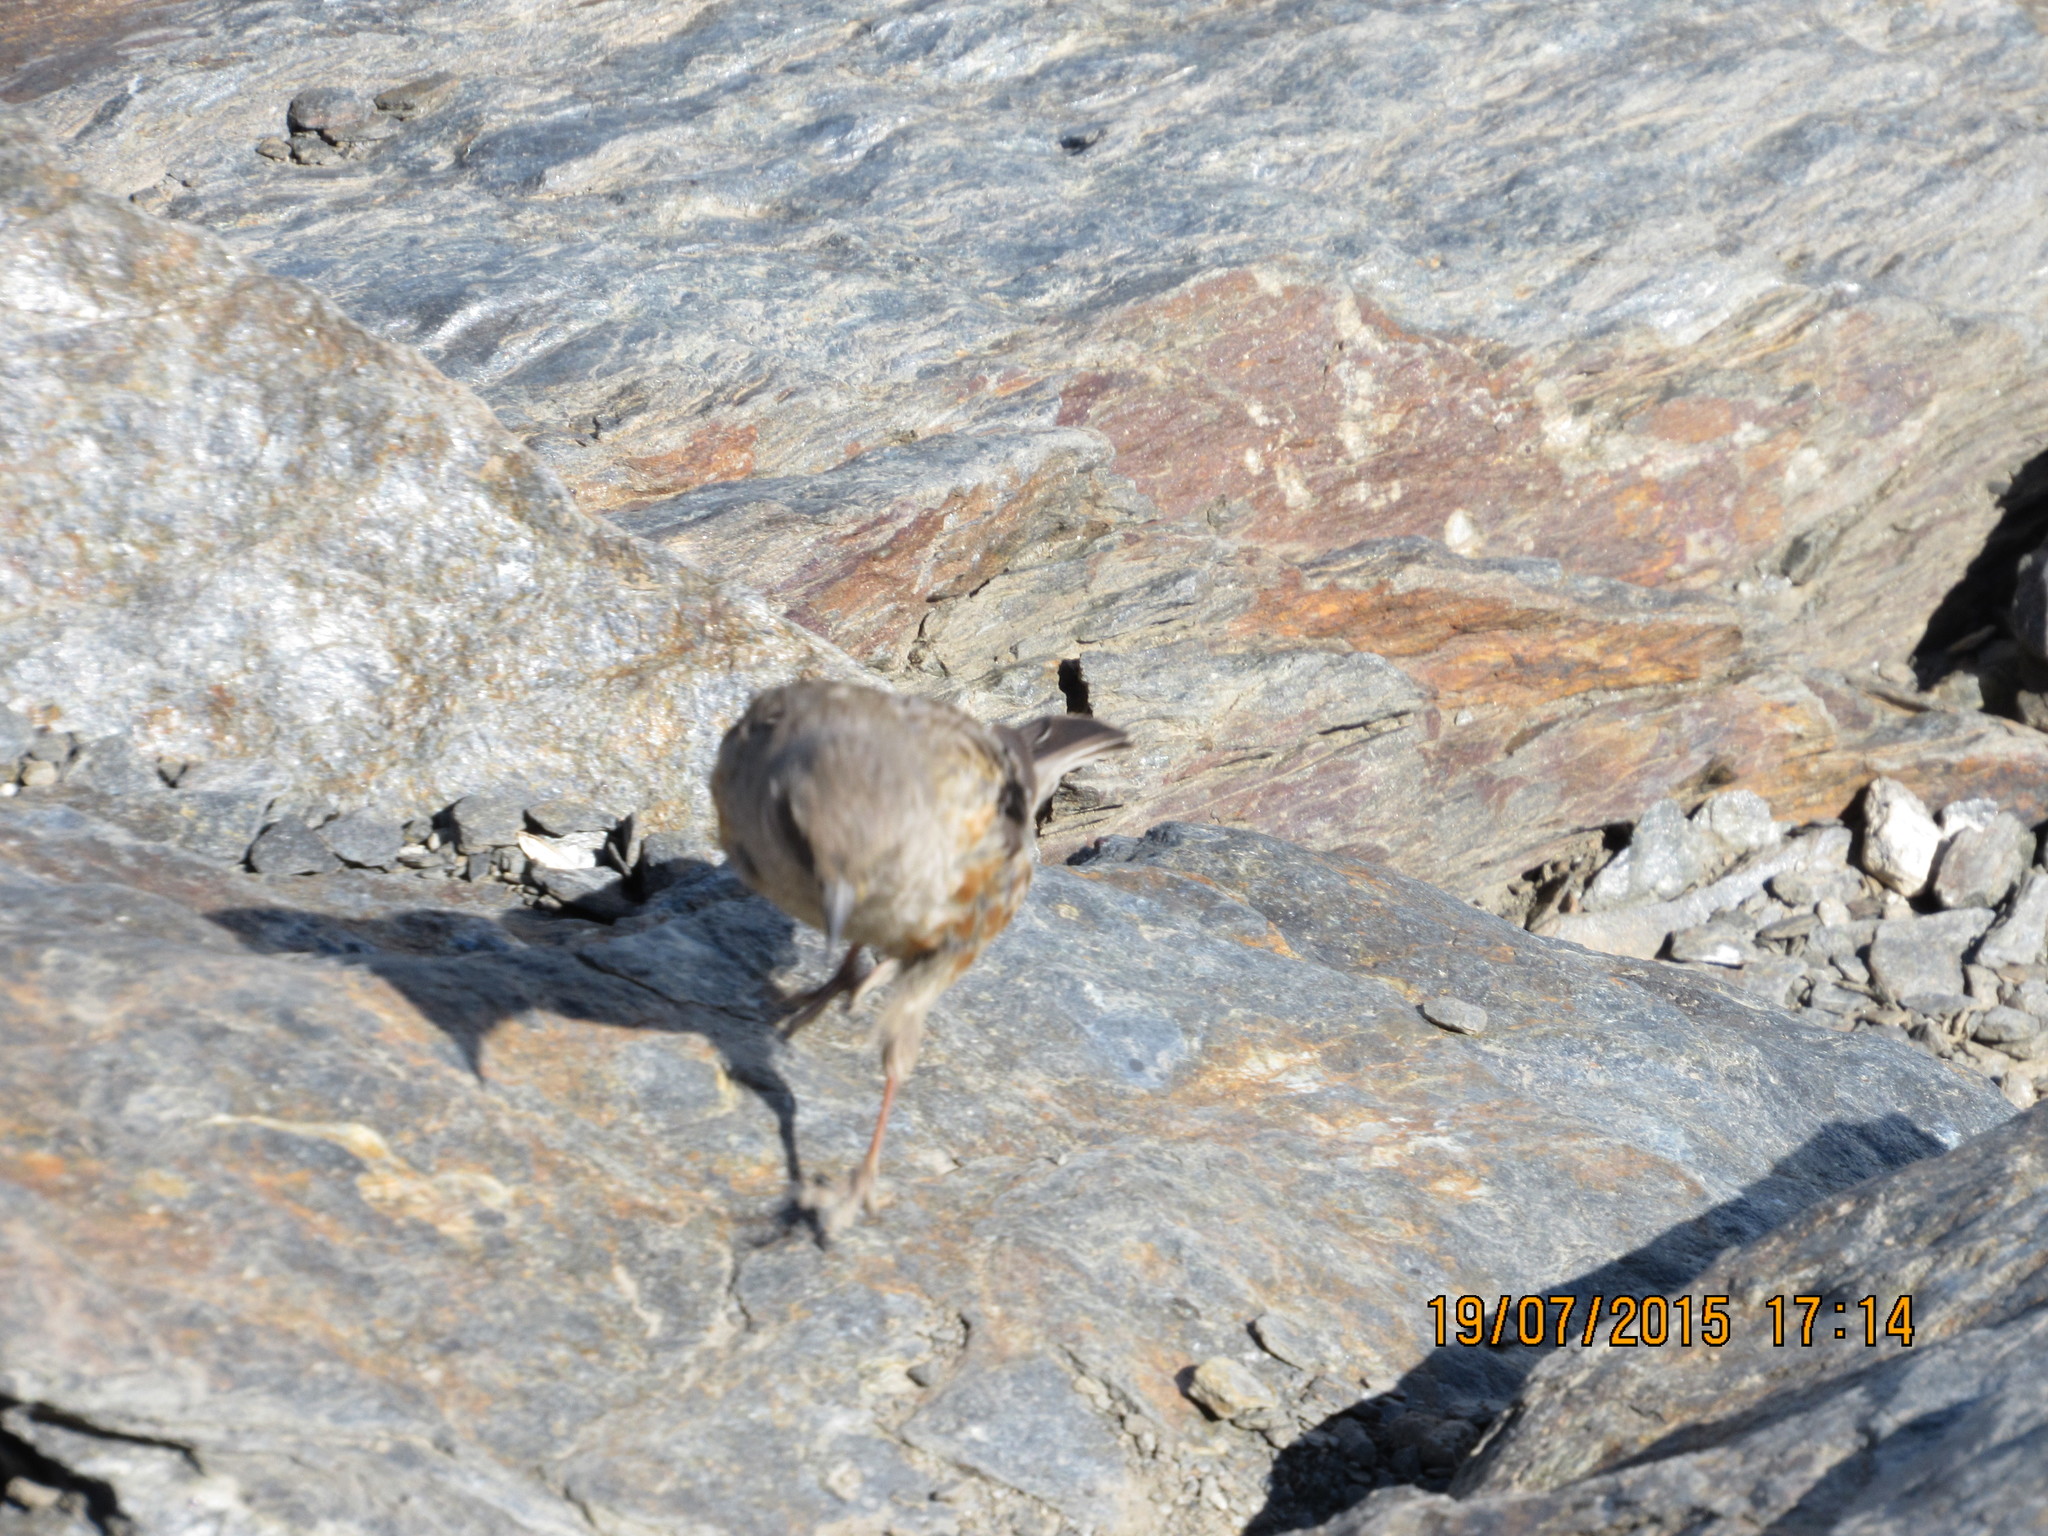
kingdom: Animalia
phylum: Chordata
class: Aves
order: Passeriformes
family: Prunellidae
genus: Prunella
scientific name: Prunella collaris
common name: Alpine accentor
